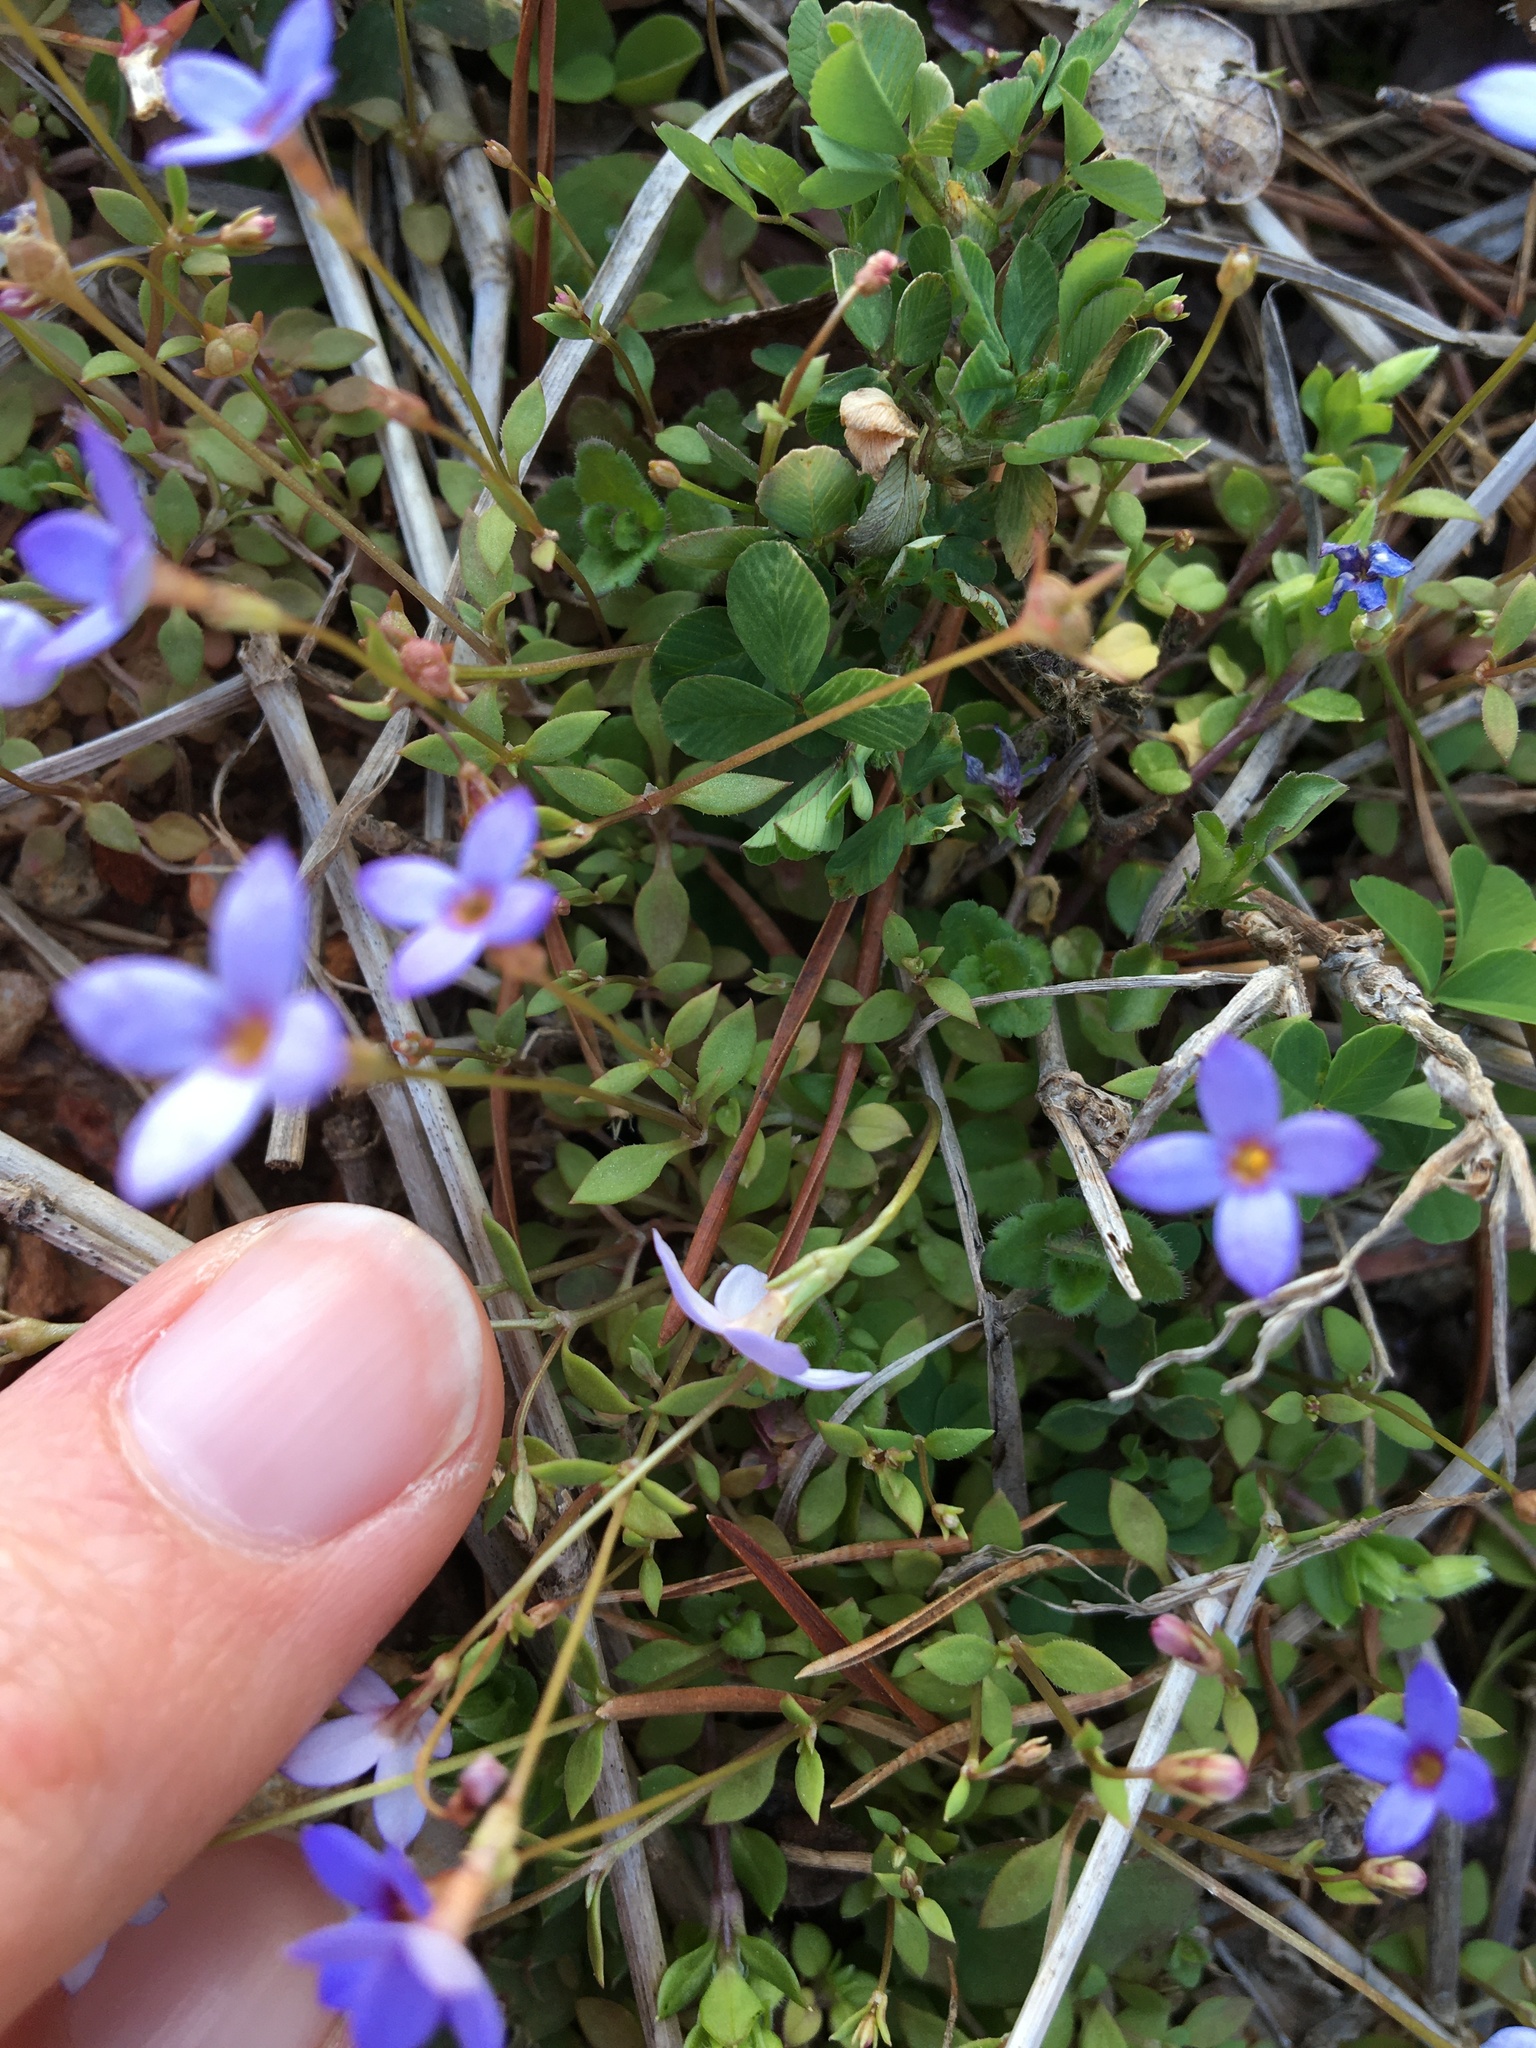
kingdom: Plantae
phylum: Tracheophyta
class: Magnoliopsida
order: Gentianales
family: Rubiaceae
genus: Houstonia
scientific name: Houstonia pusilla
